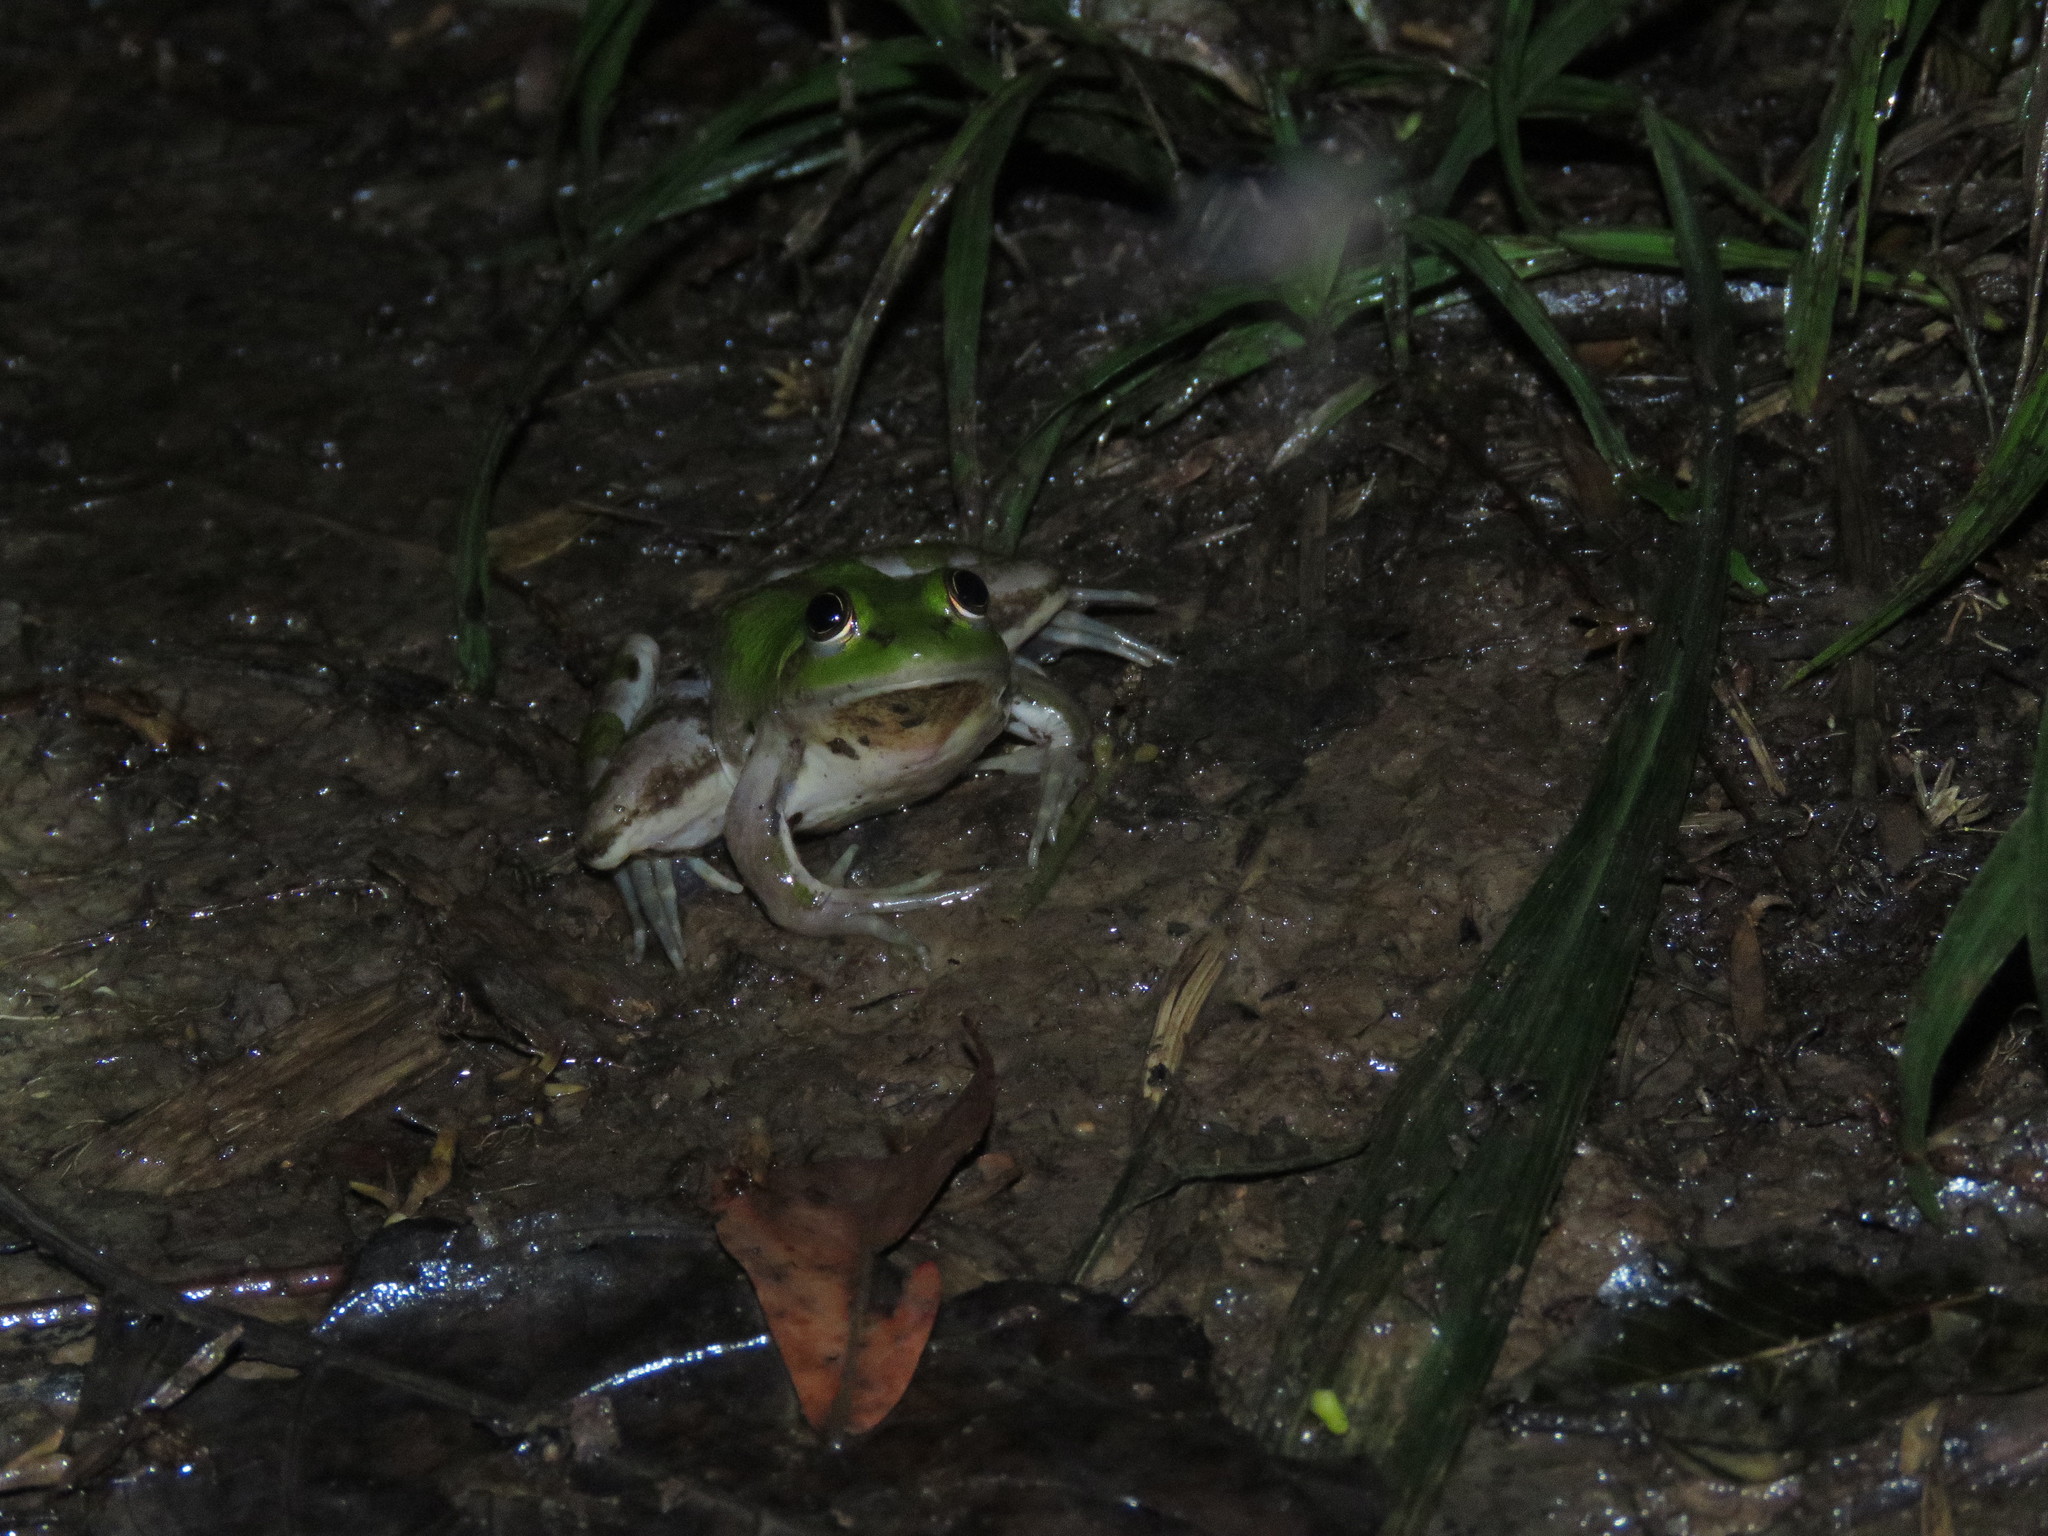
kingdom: Animalia
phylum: Chordata
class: Amphibia
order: Anura
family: Hylidae
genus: Pseudis
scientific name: Pseudis paradoxa
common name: Swimming frog
